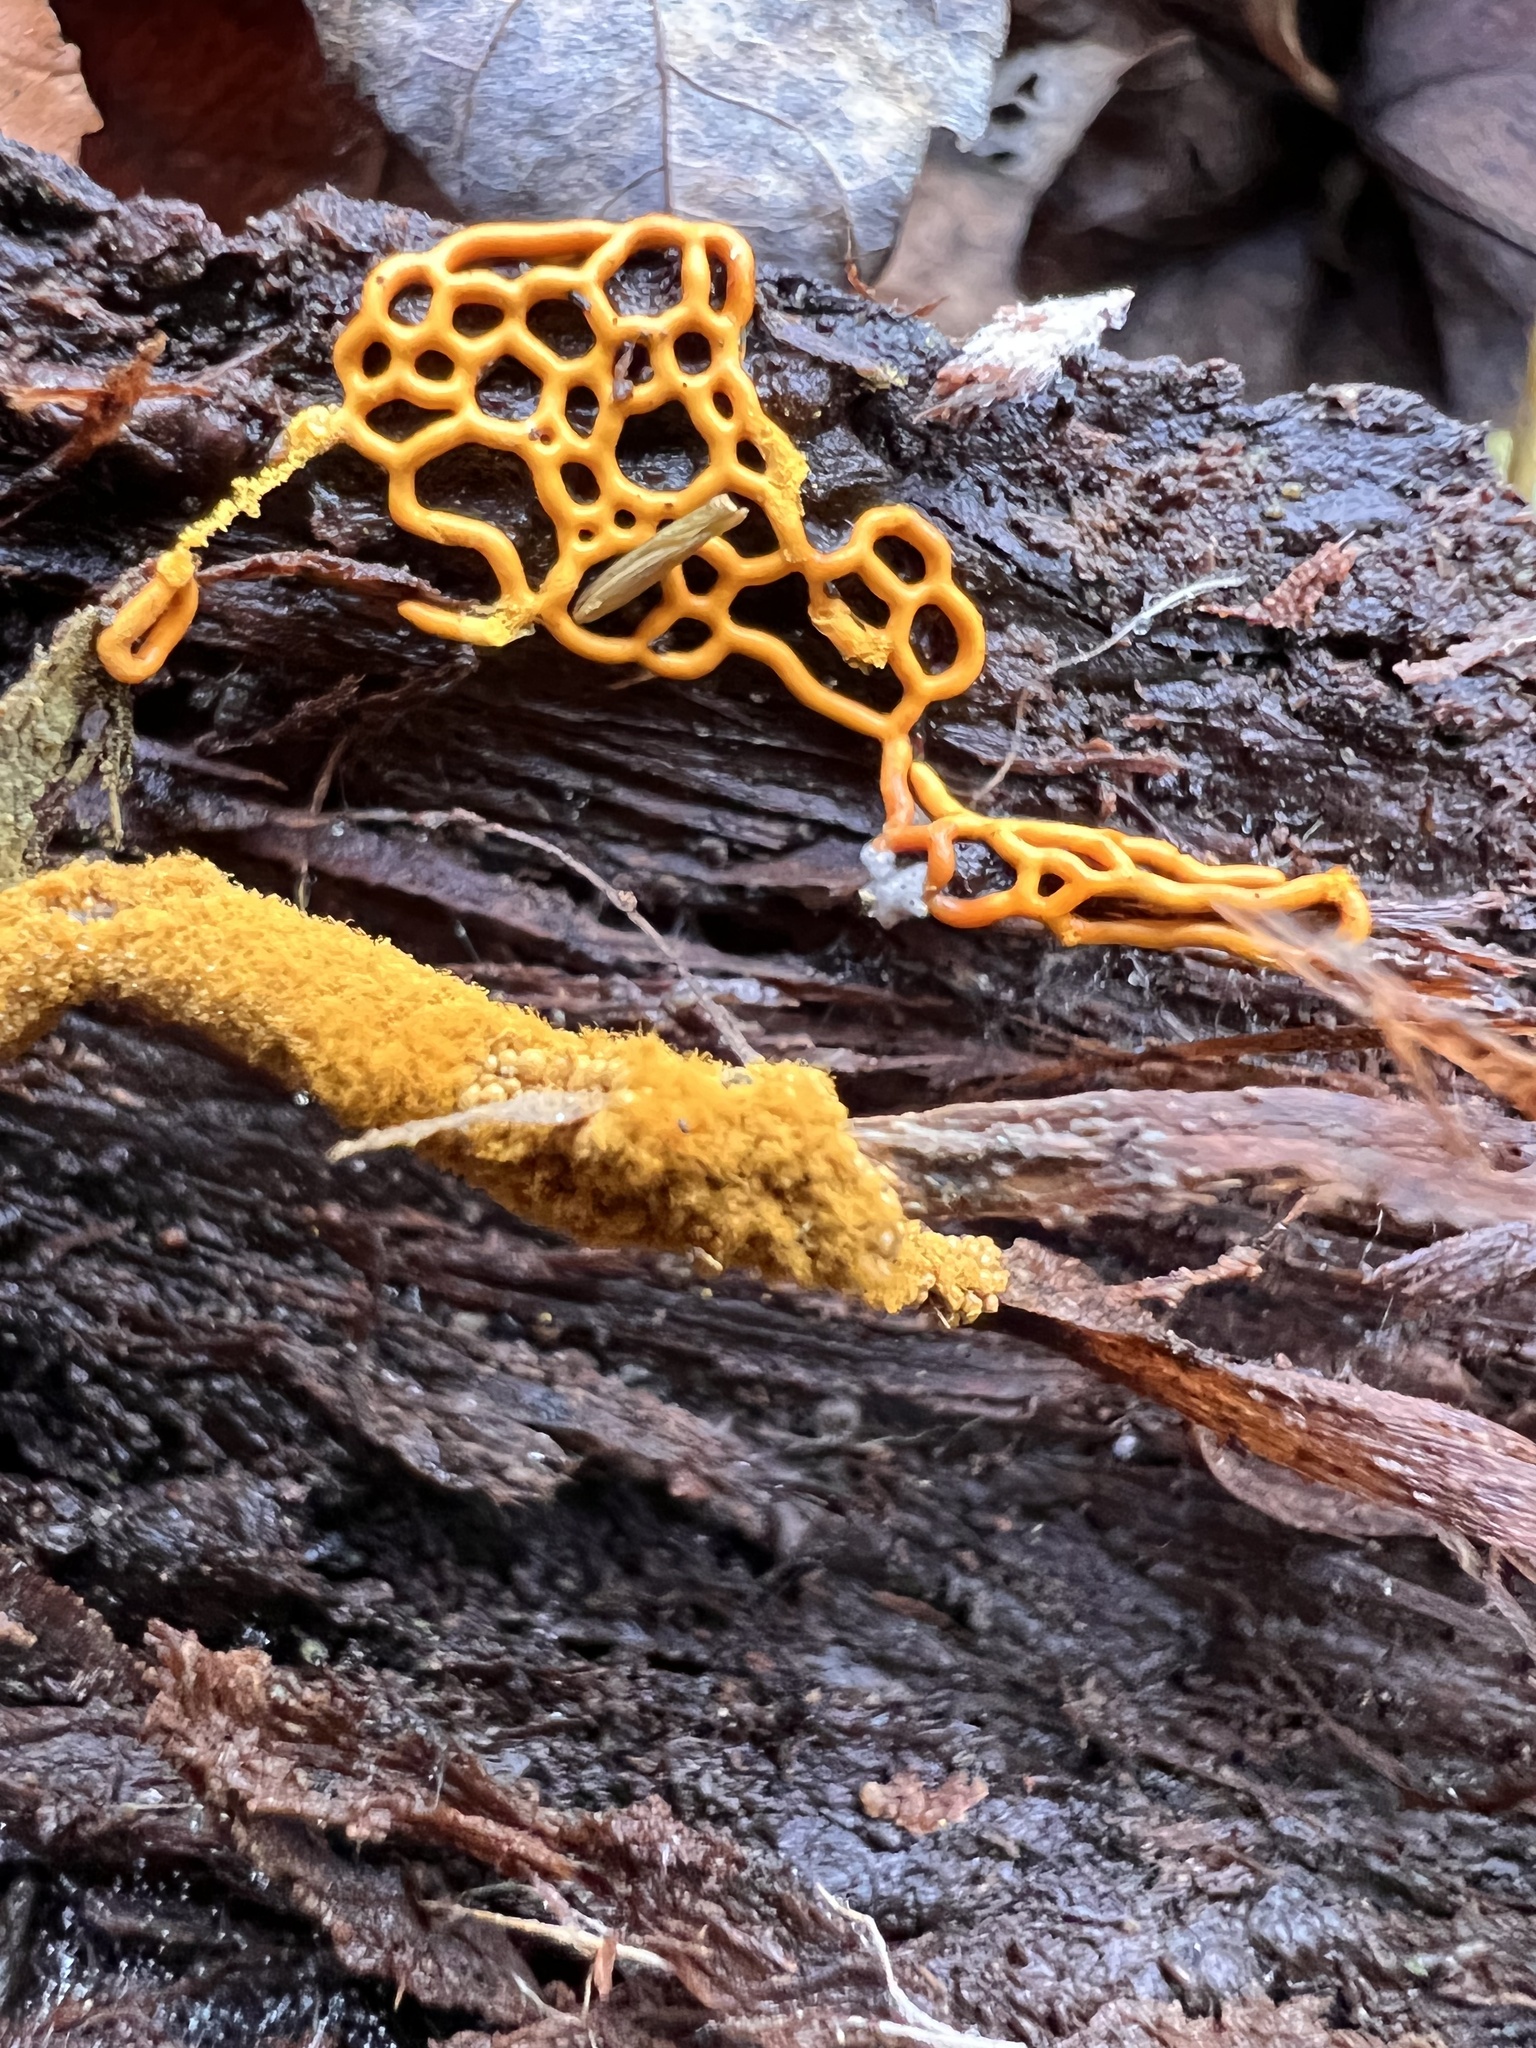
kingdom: Protozoa
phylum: Mycetozoa
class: Myxomycetes
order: Trichiales
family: Arcyriaceae
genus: Hemitrichia
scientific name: Hemitrichia serpula
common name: Pretzel slime mold
